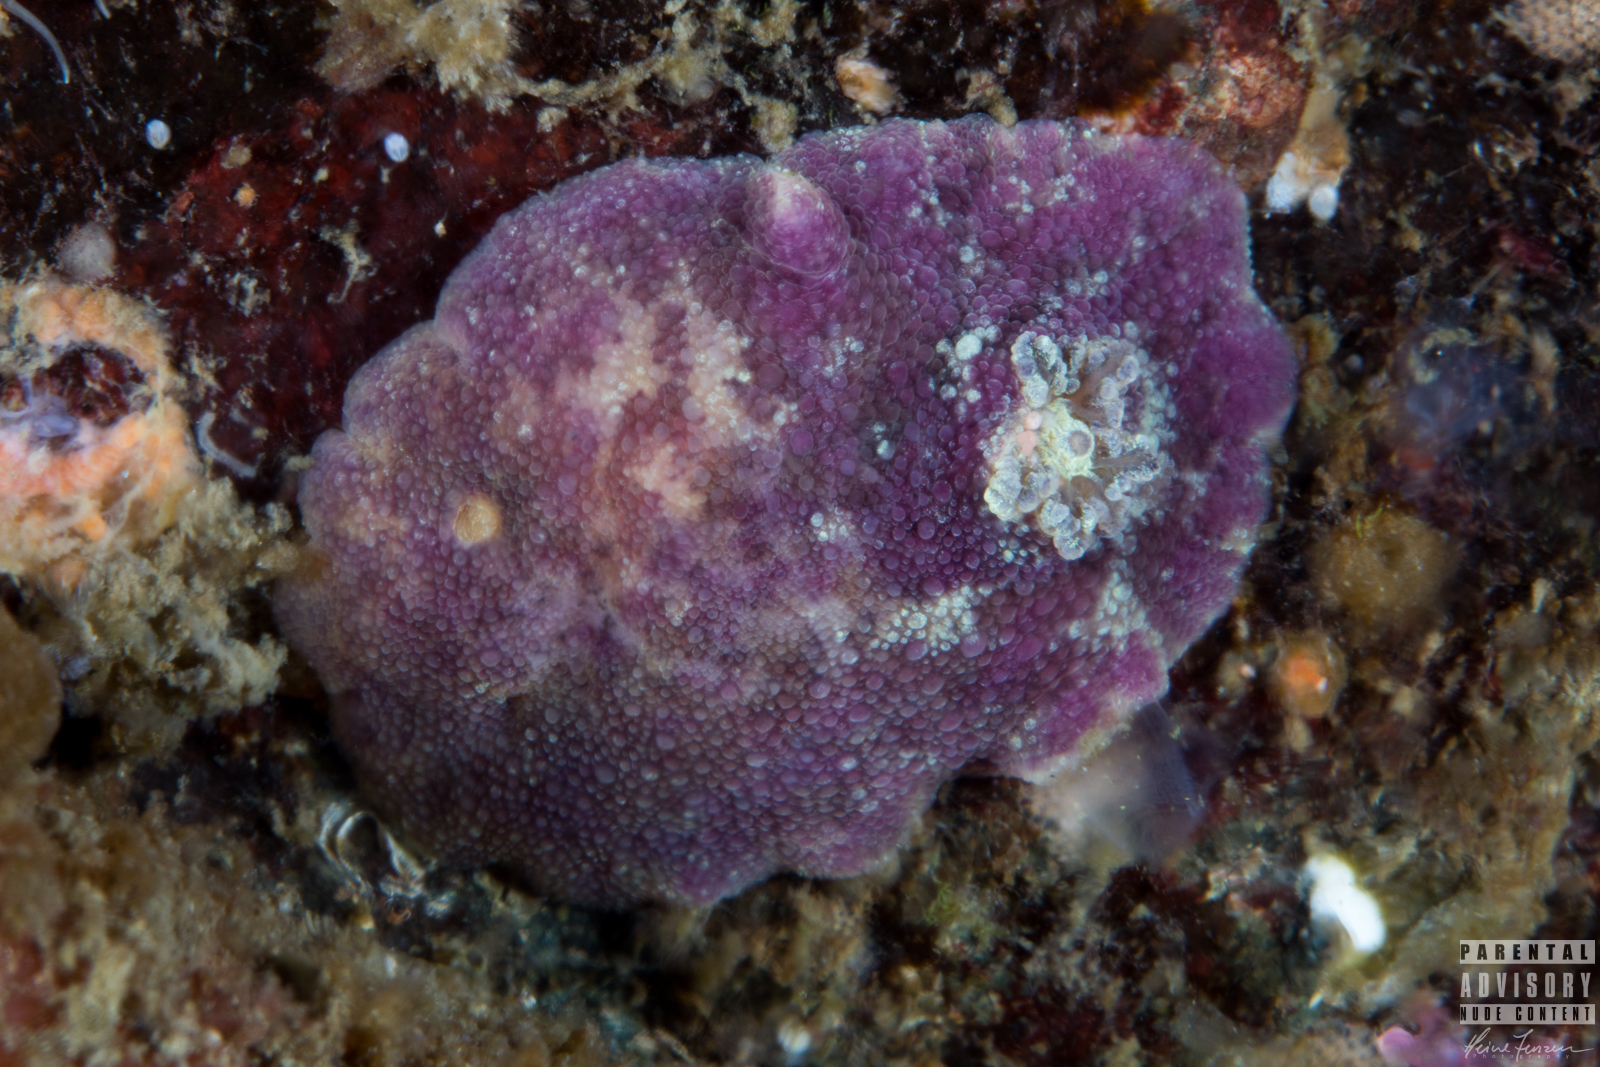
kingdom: Animalia
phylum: Mollusca
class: Gastropoda
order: Nudibranchia
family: Dorididae
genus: Doris
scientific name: Doris pseudoargus
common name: Sea lemon
